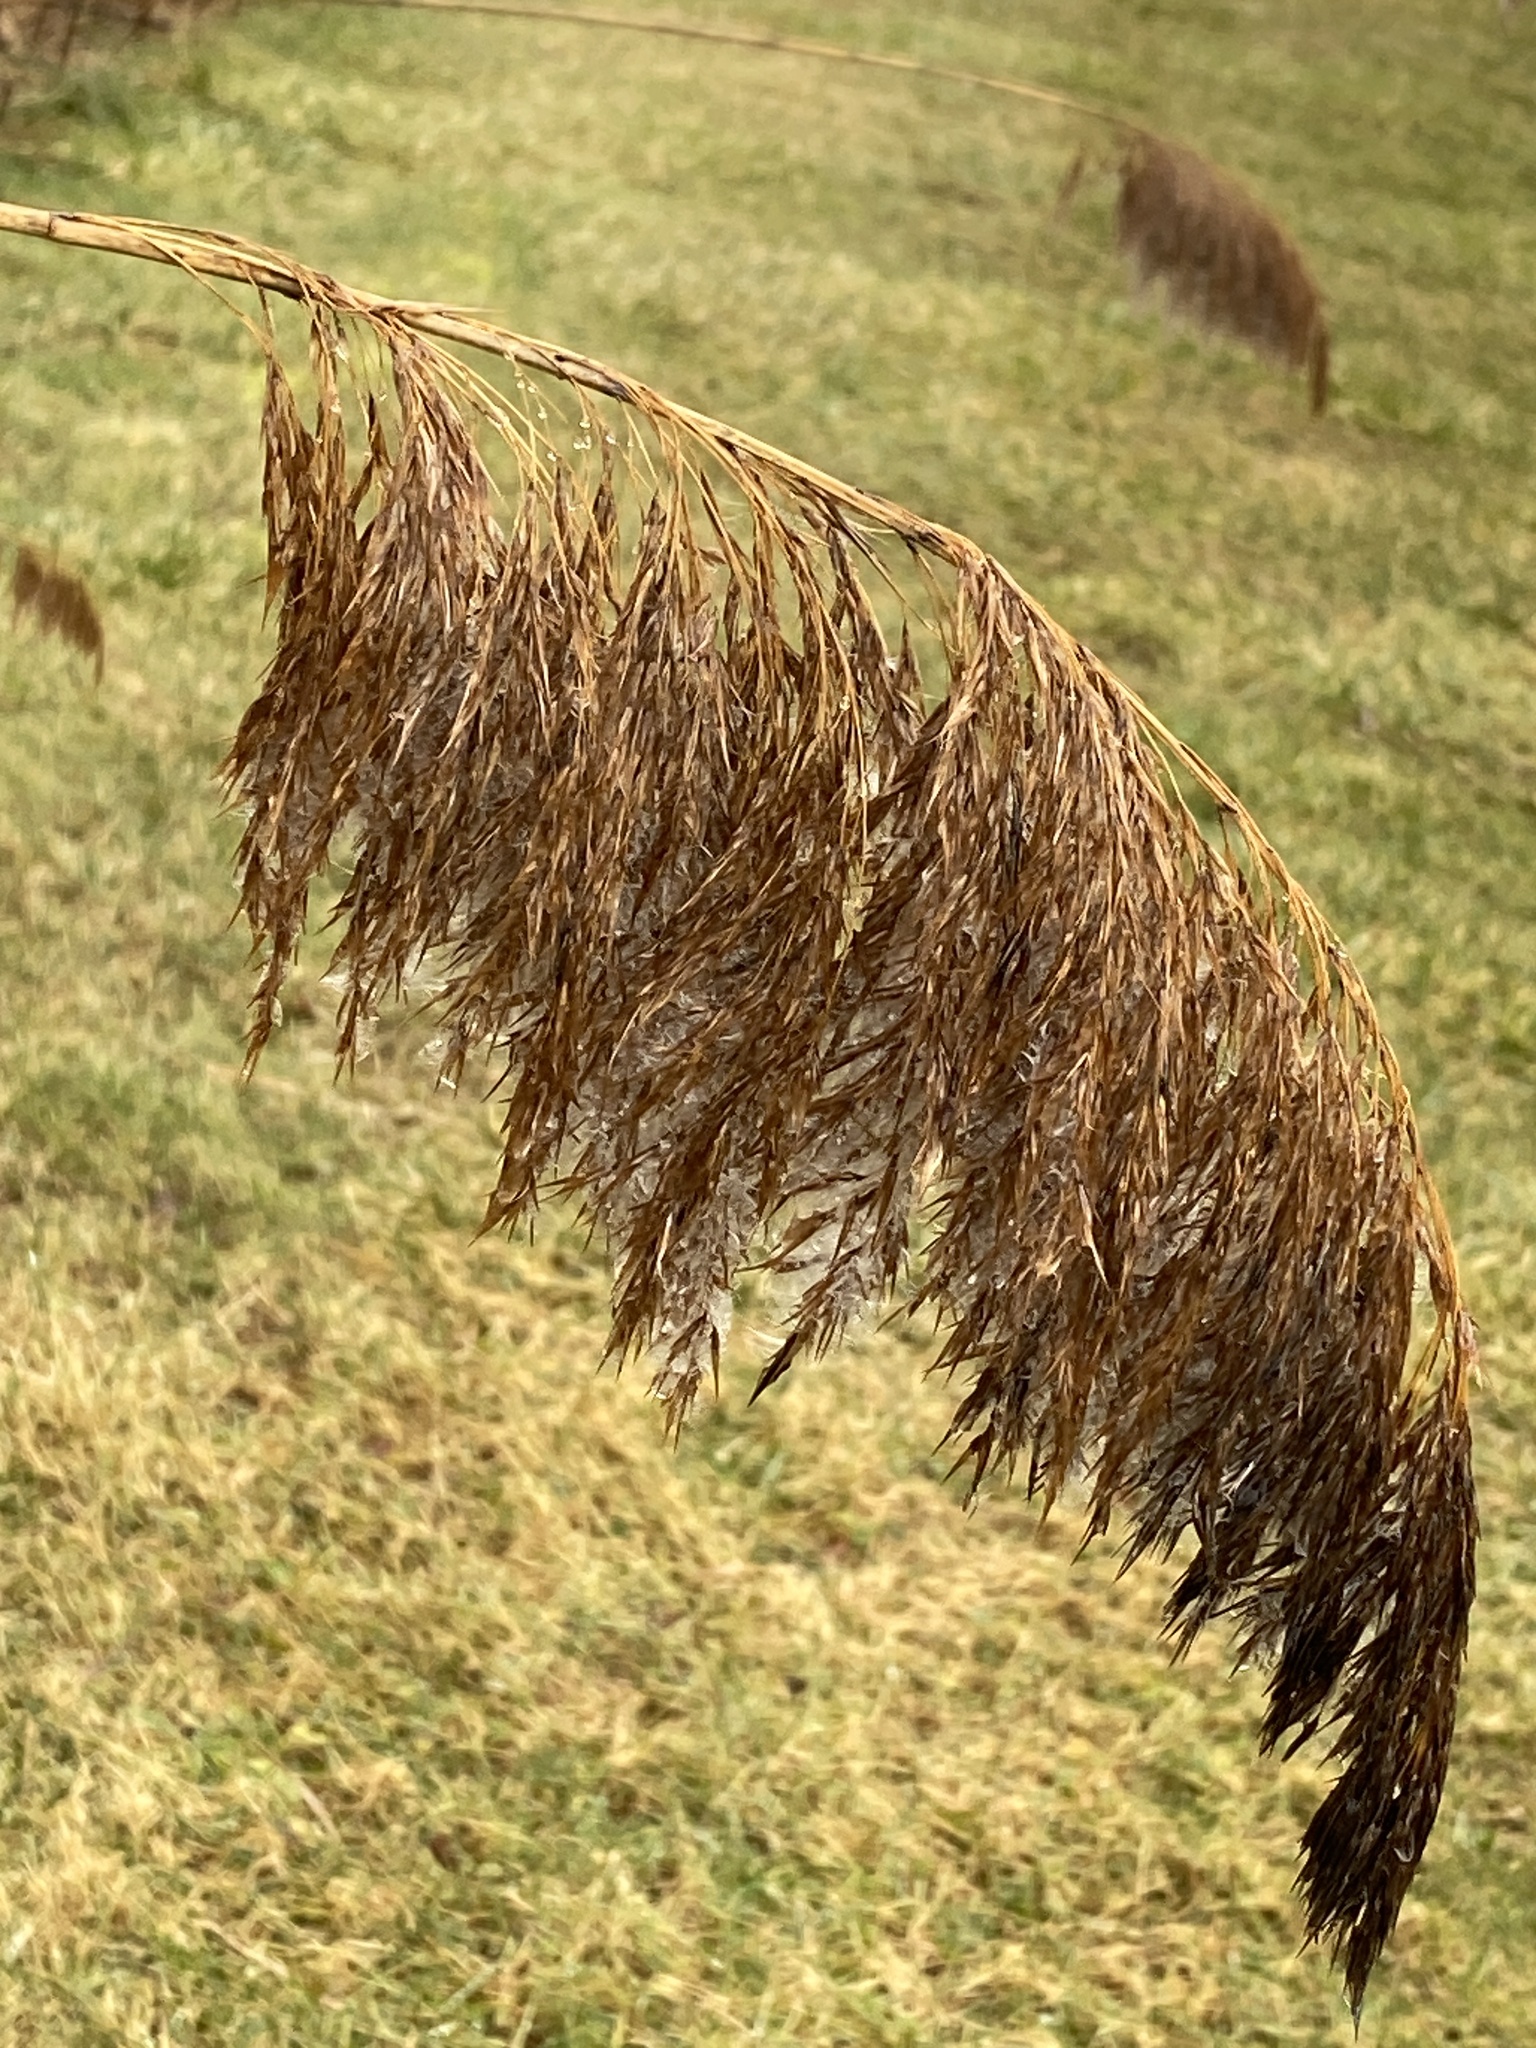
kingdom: Plantae
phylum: Tracheophyta
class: Liliopsida
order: Poales
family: Poaceae
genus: Phragmites
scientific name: Phragmites australis
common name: Common reed
